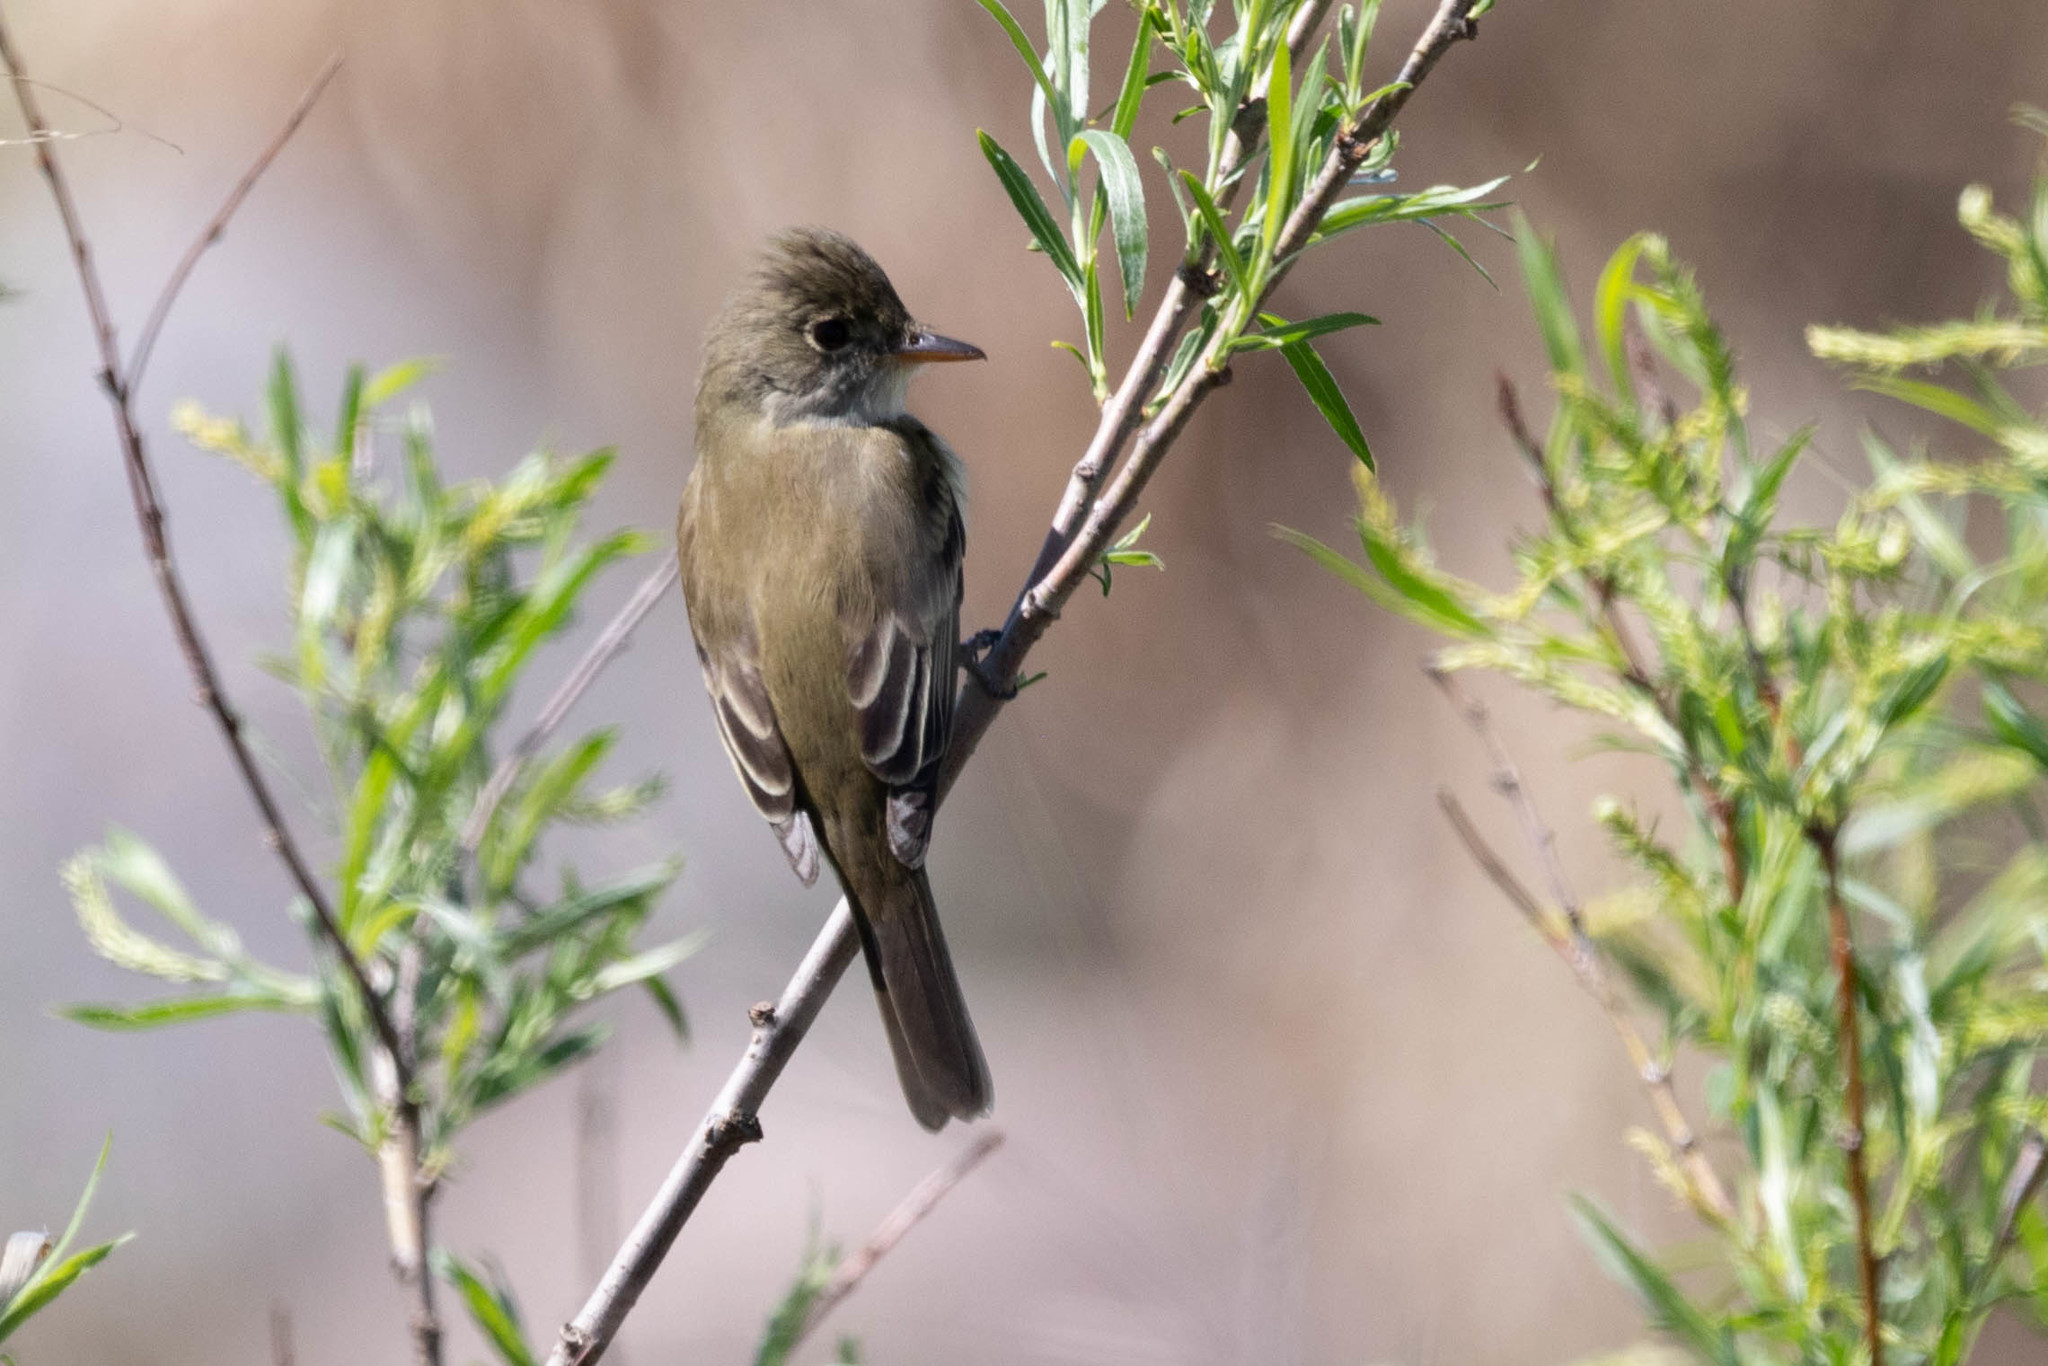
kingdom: Animalia
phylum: Chordata
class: Aves
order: Passeriformes
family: Tyrannidae
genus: Empidonax
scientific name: Empidonax traillii
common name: Willow flycatcher
